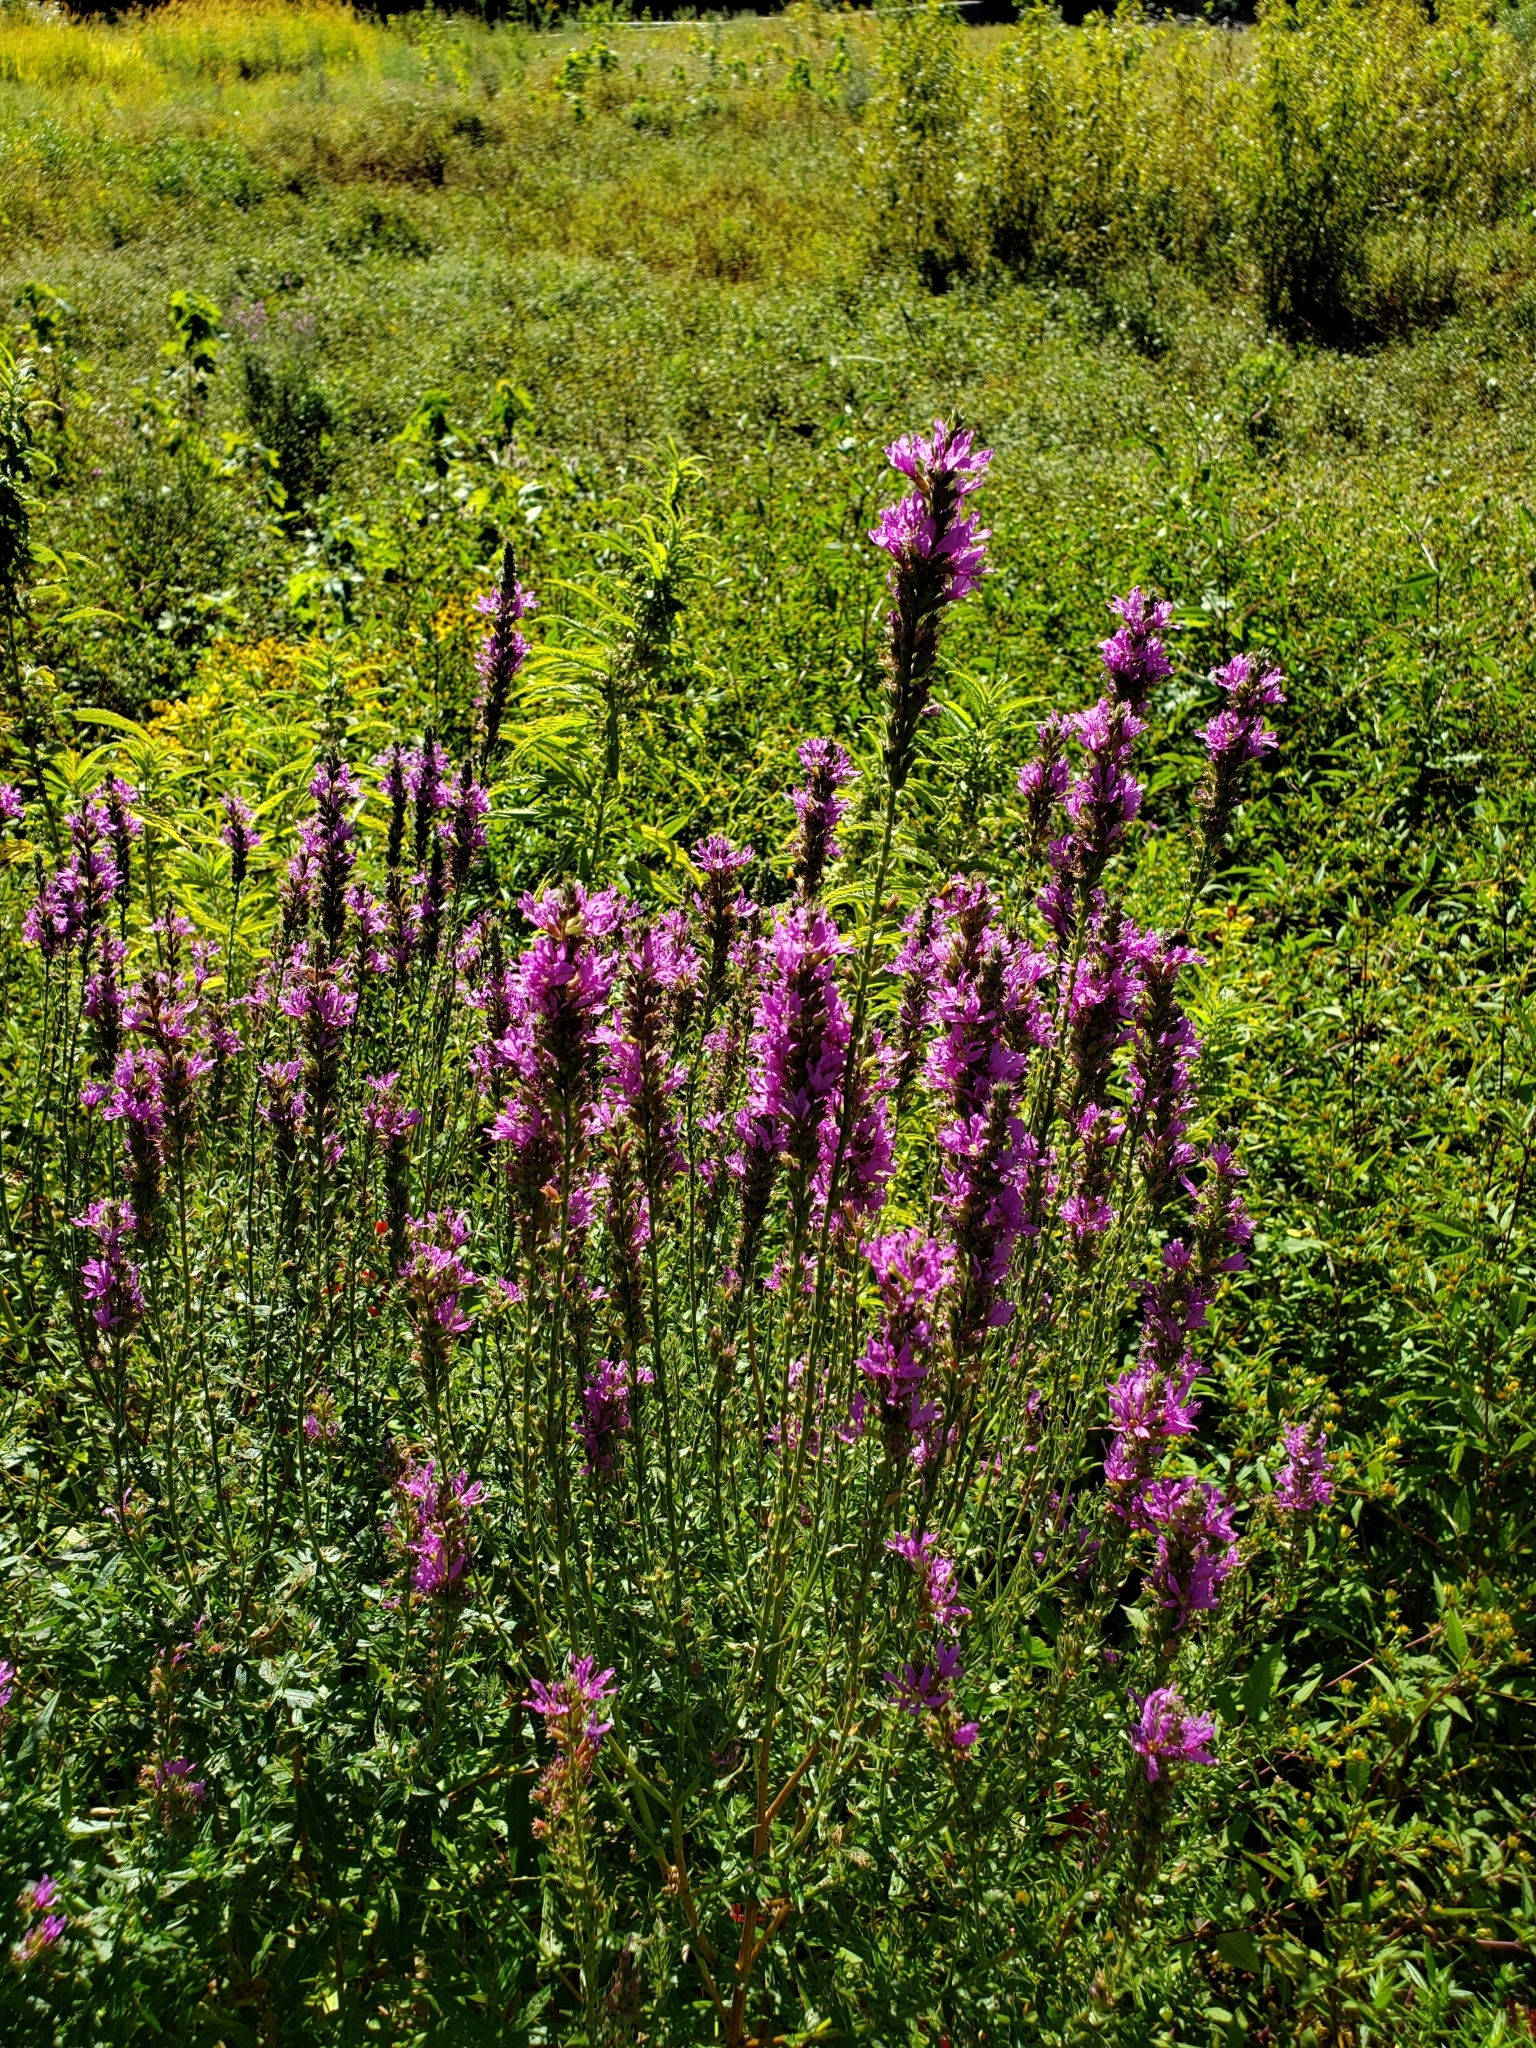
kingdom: Plantae
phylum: Tracheophyta
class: Magnoliopsida
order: Myrtales
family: Lythraceae
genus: Lythrum
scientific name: Lythrum salicaria
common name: Purple loosestrife
